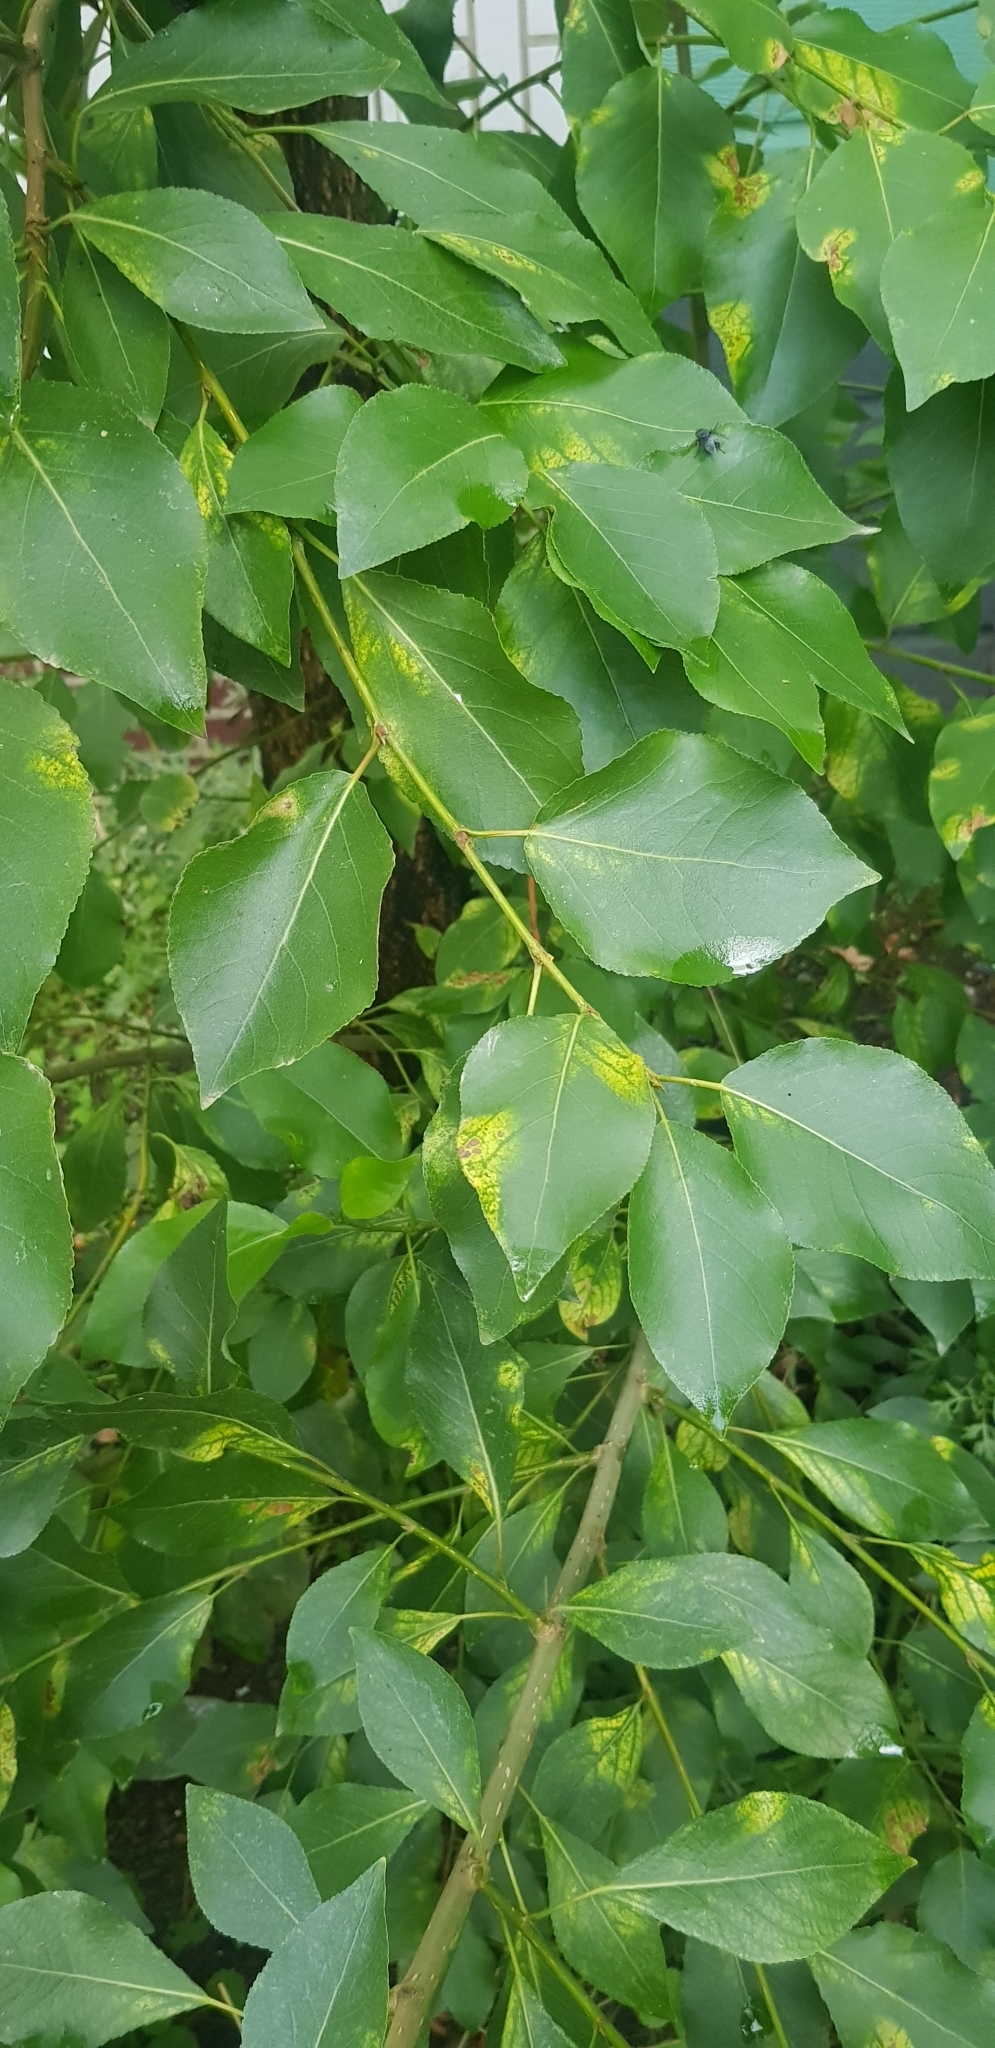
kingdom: Plantae
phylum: Tracheophyta
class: Magnoliopsida
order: Malpighiales
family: Salicaceae
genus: Populus
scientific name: Populus suaveolens
